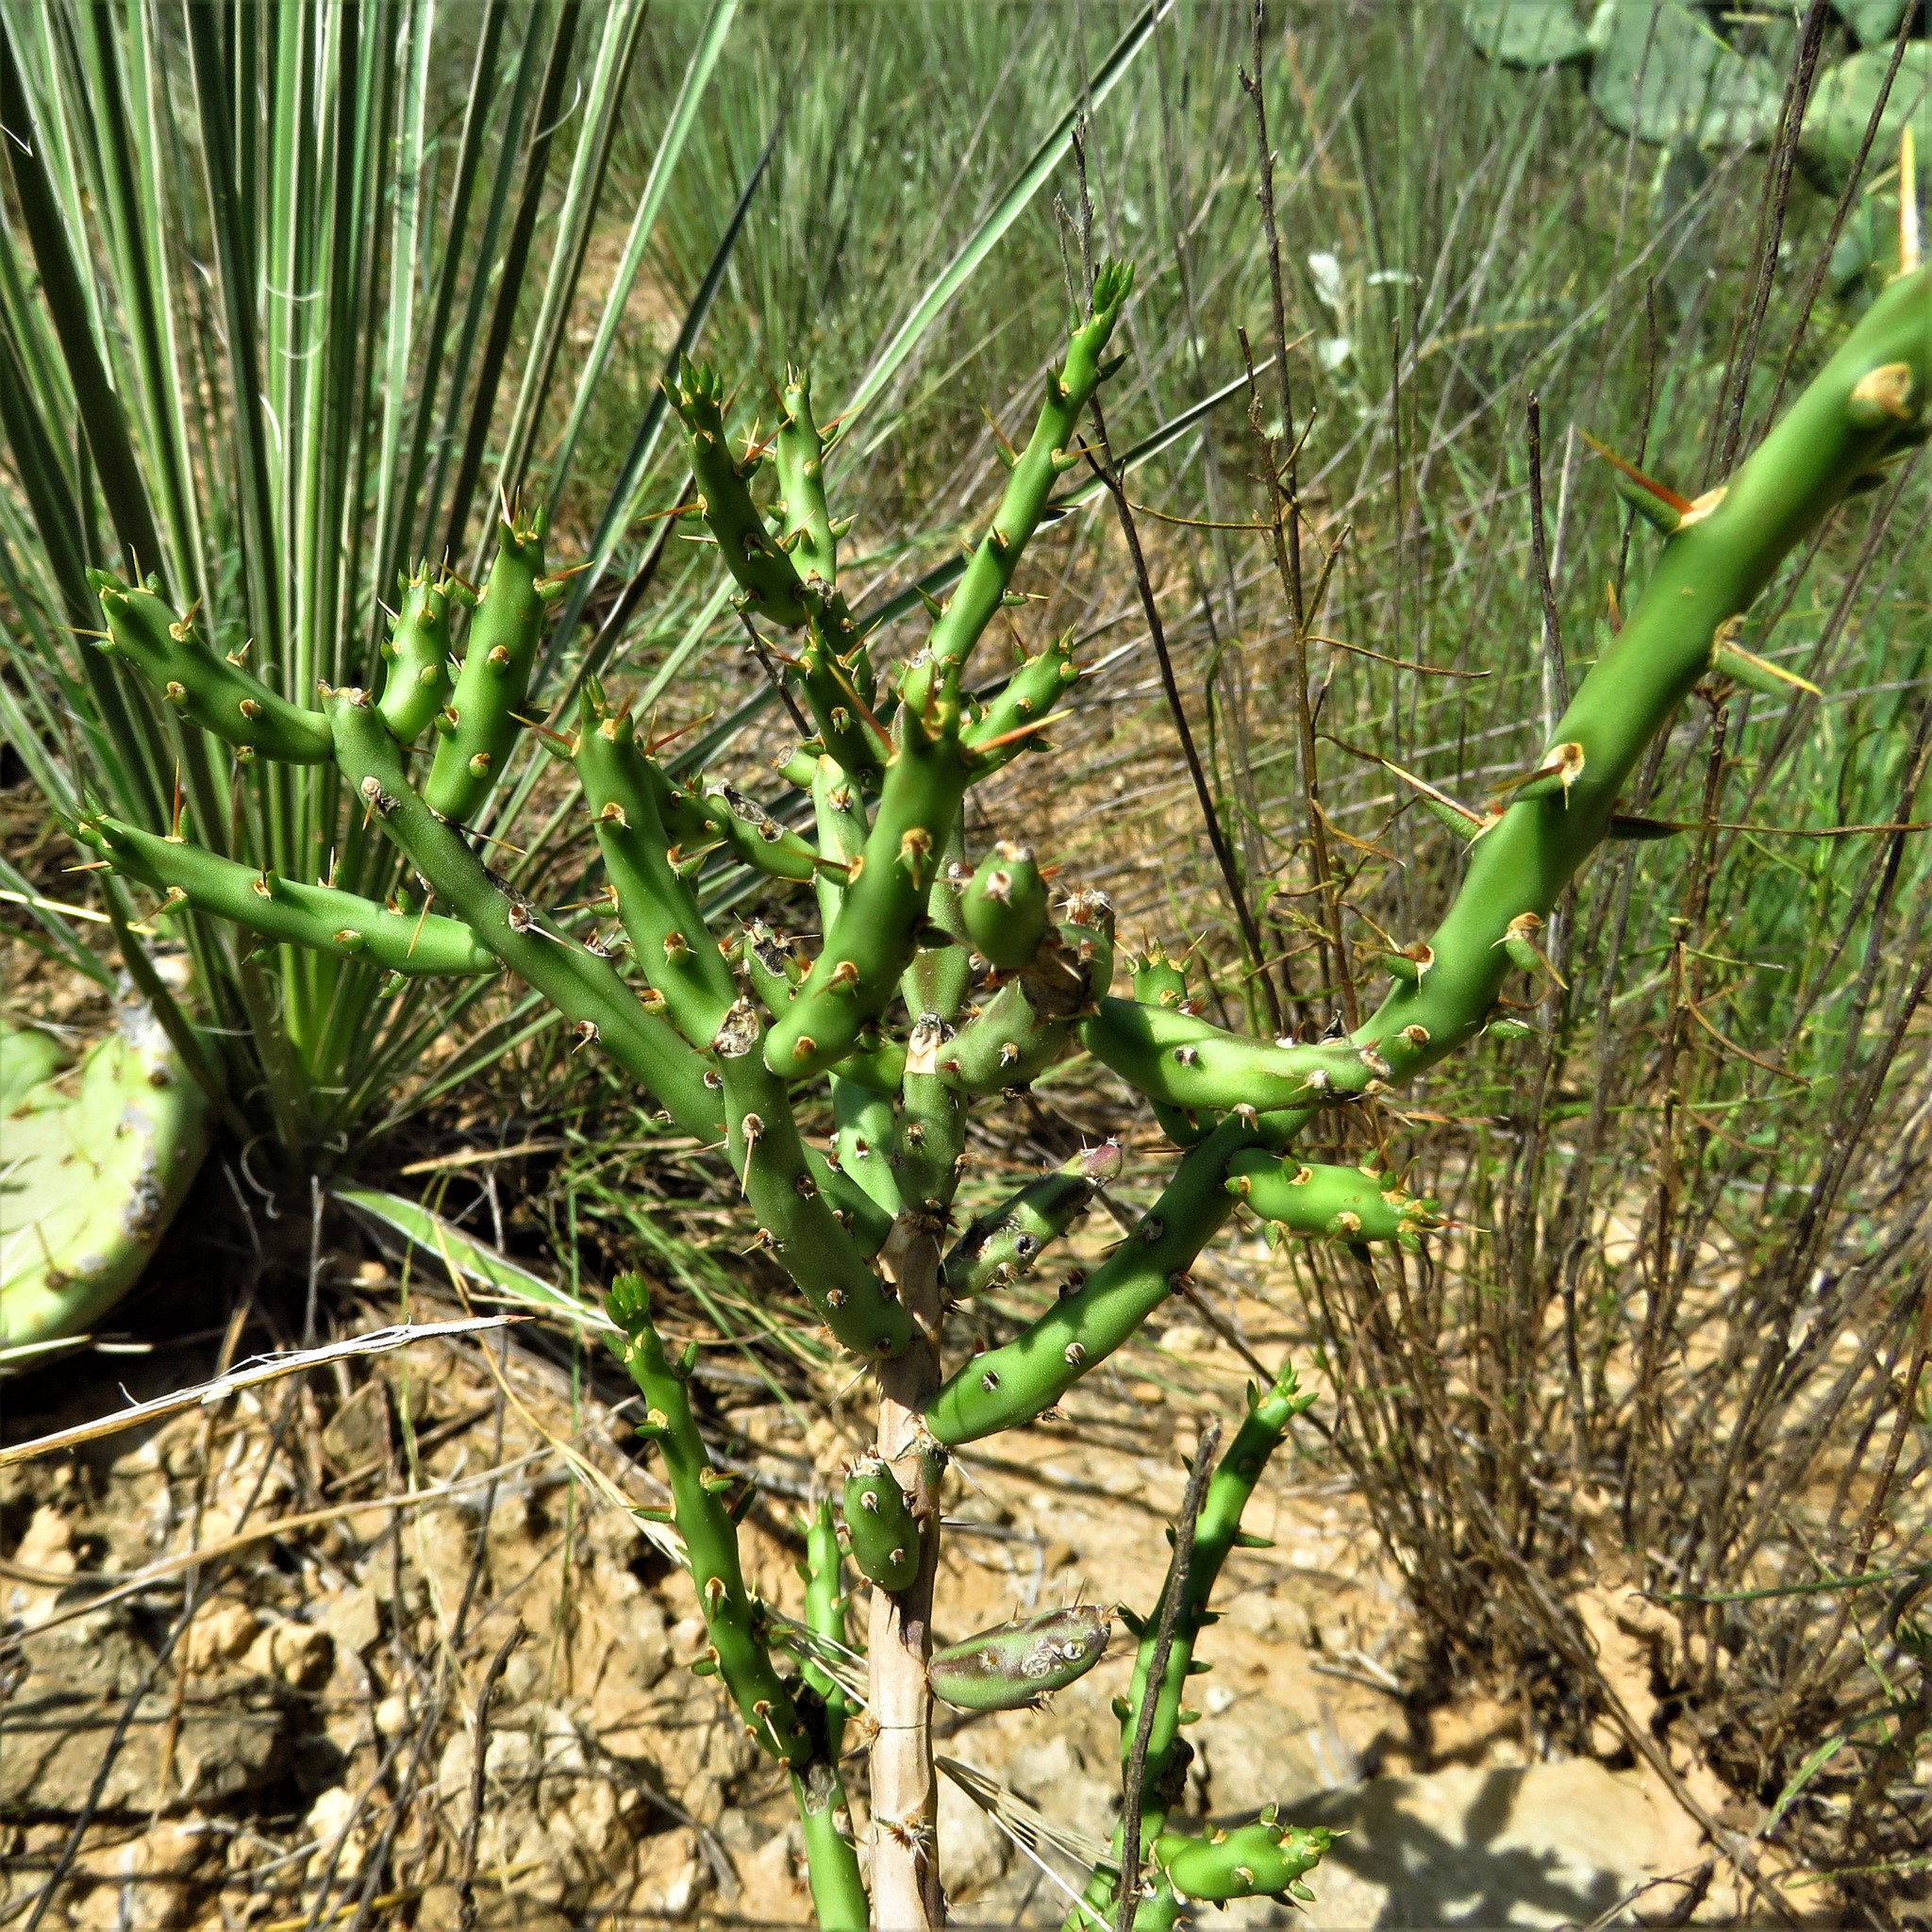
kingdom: Plantae
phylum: Tracheophyta
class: Magnoliopsida
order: Caryophyllales
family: Cactaceae
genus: Cylindropuntia
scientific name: Cylindropuntia leptocaulis
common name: Christmas cactus
